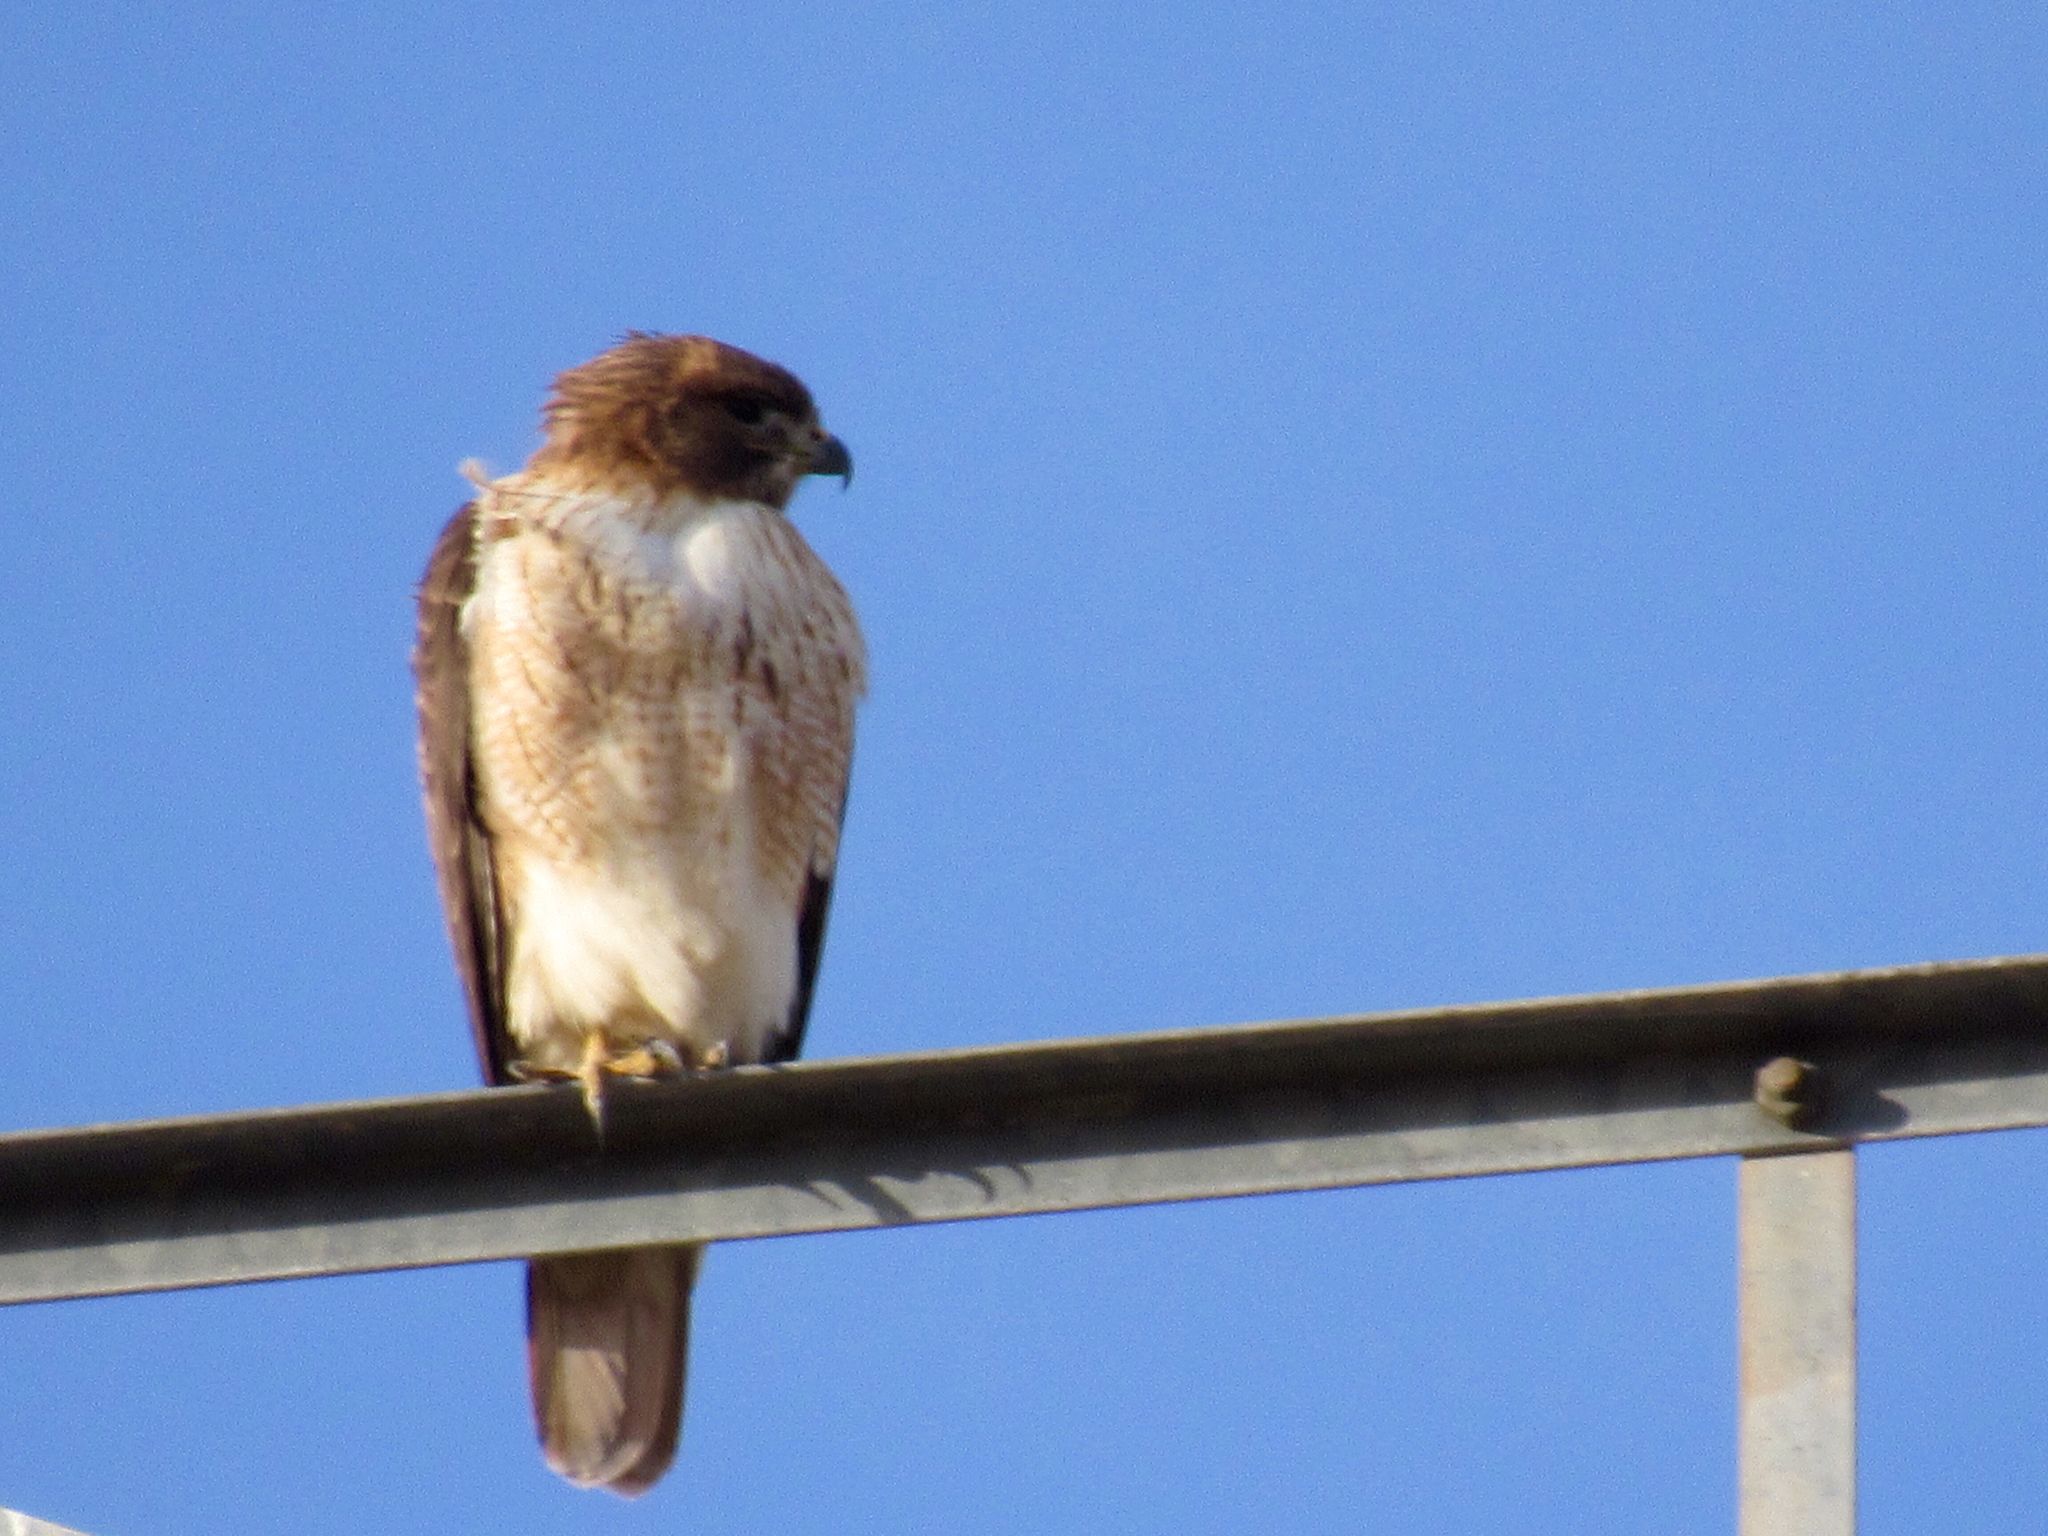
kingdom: Animalia
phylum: Chordata
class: Aves
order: Accipitriformes
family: Accipitridae
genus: Buteo
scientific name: Buteo jamaicensis
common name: Red-tailed hawk
